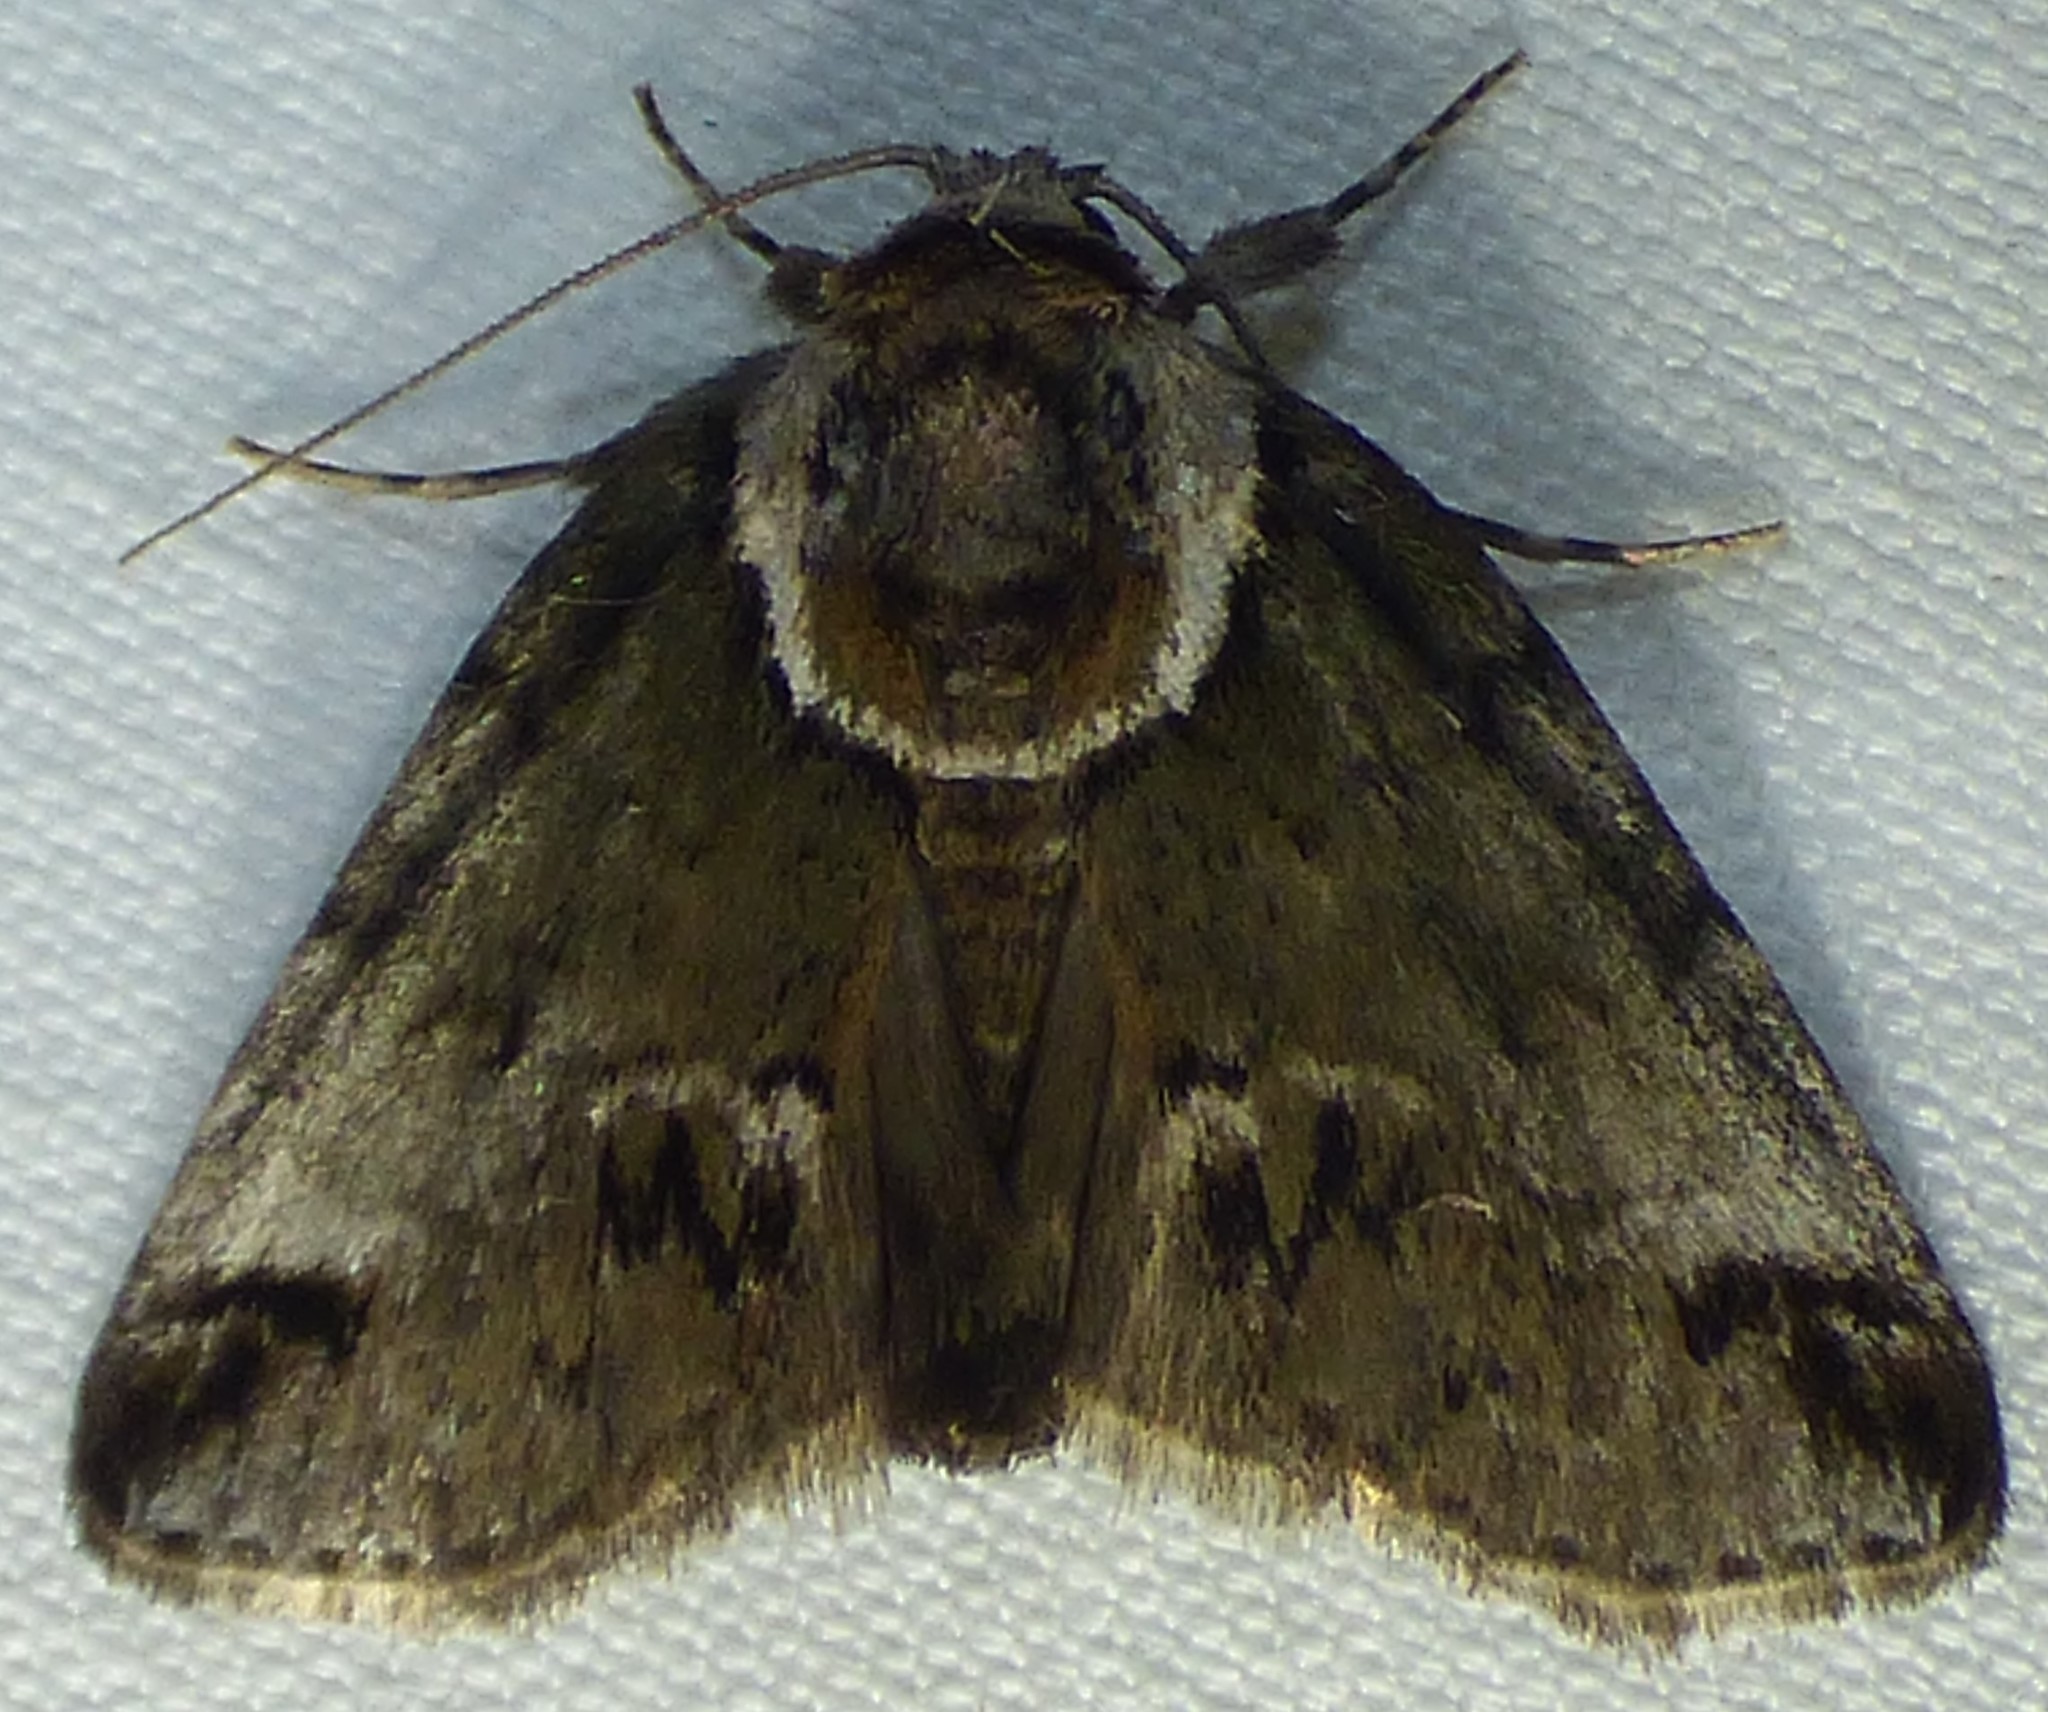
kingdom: Animalia
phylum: Arthropoda
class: Insecta
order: Lepidoptera
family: Nolidae
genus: Baileya
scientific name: Baileya australis
